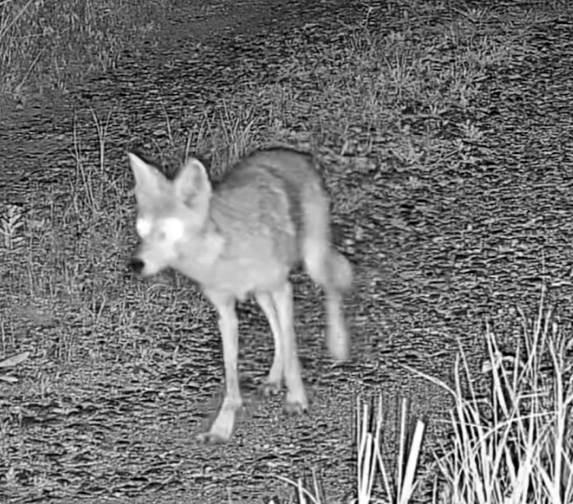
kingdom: Animalia
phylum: Chordata
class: Mammalia
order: Carnivora
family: Canidae
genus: Canis
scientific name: Canis latrans
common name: Coyote
